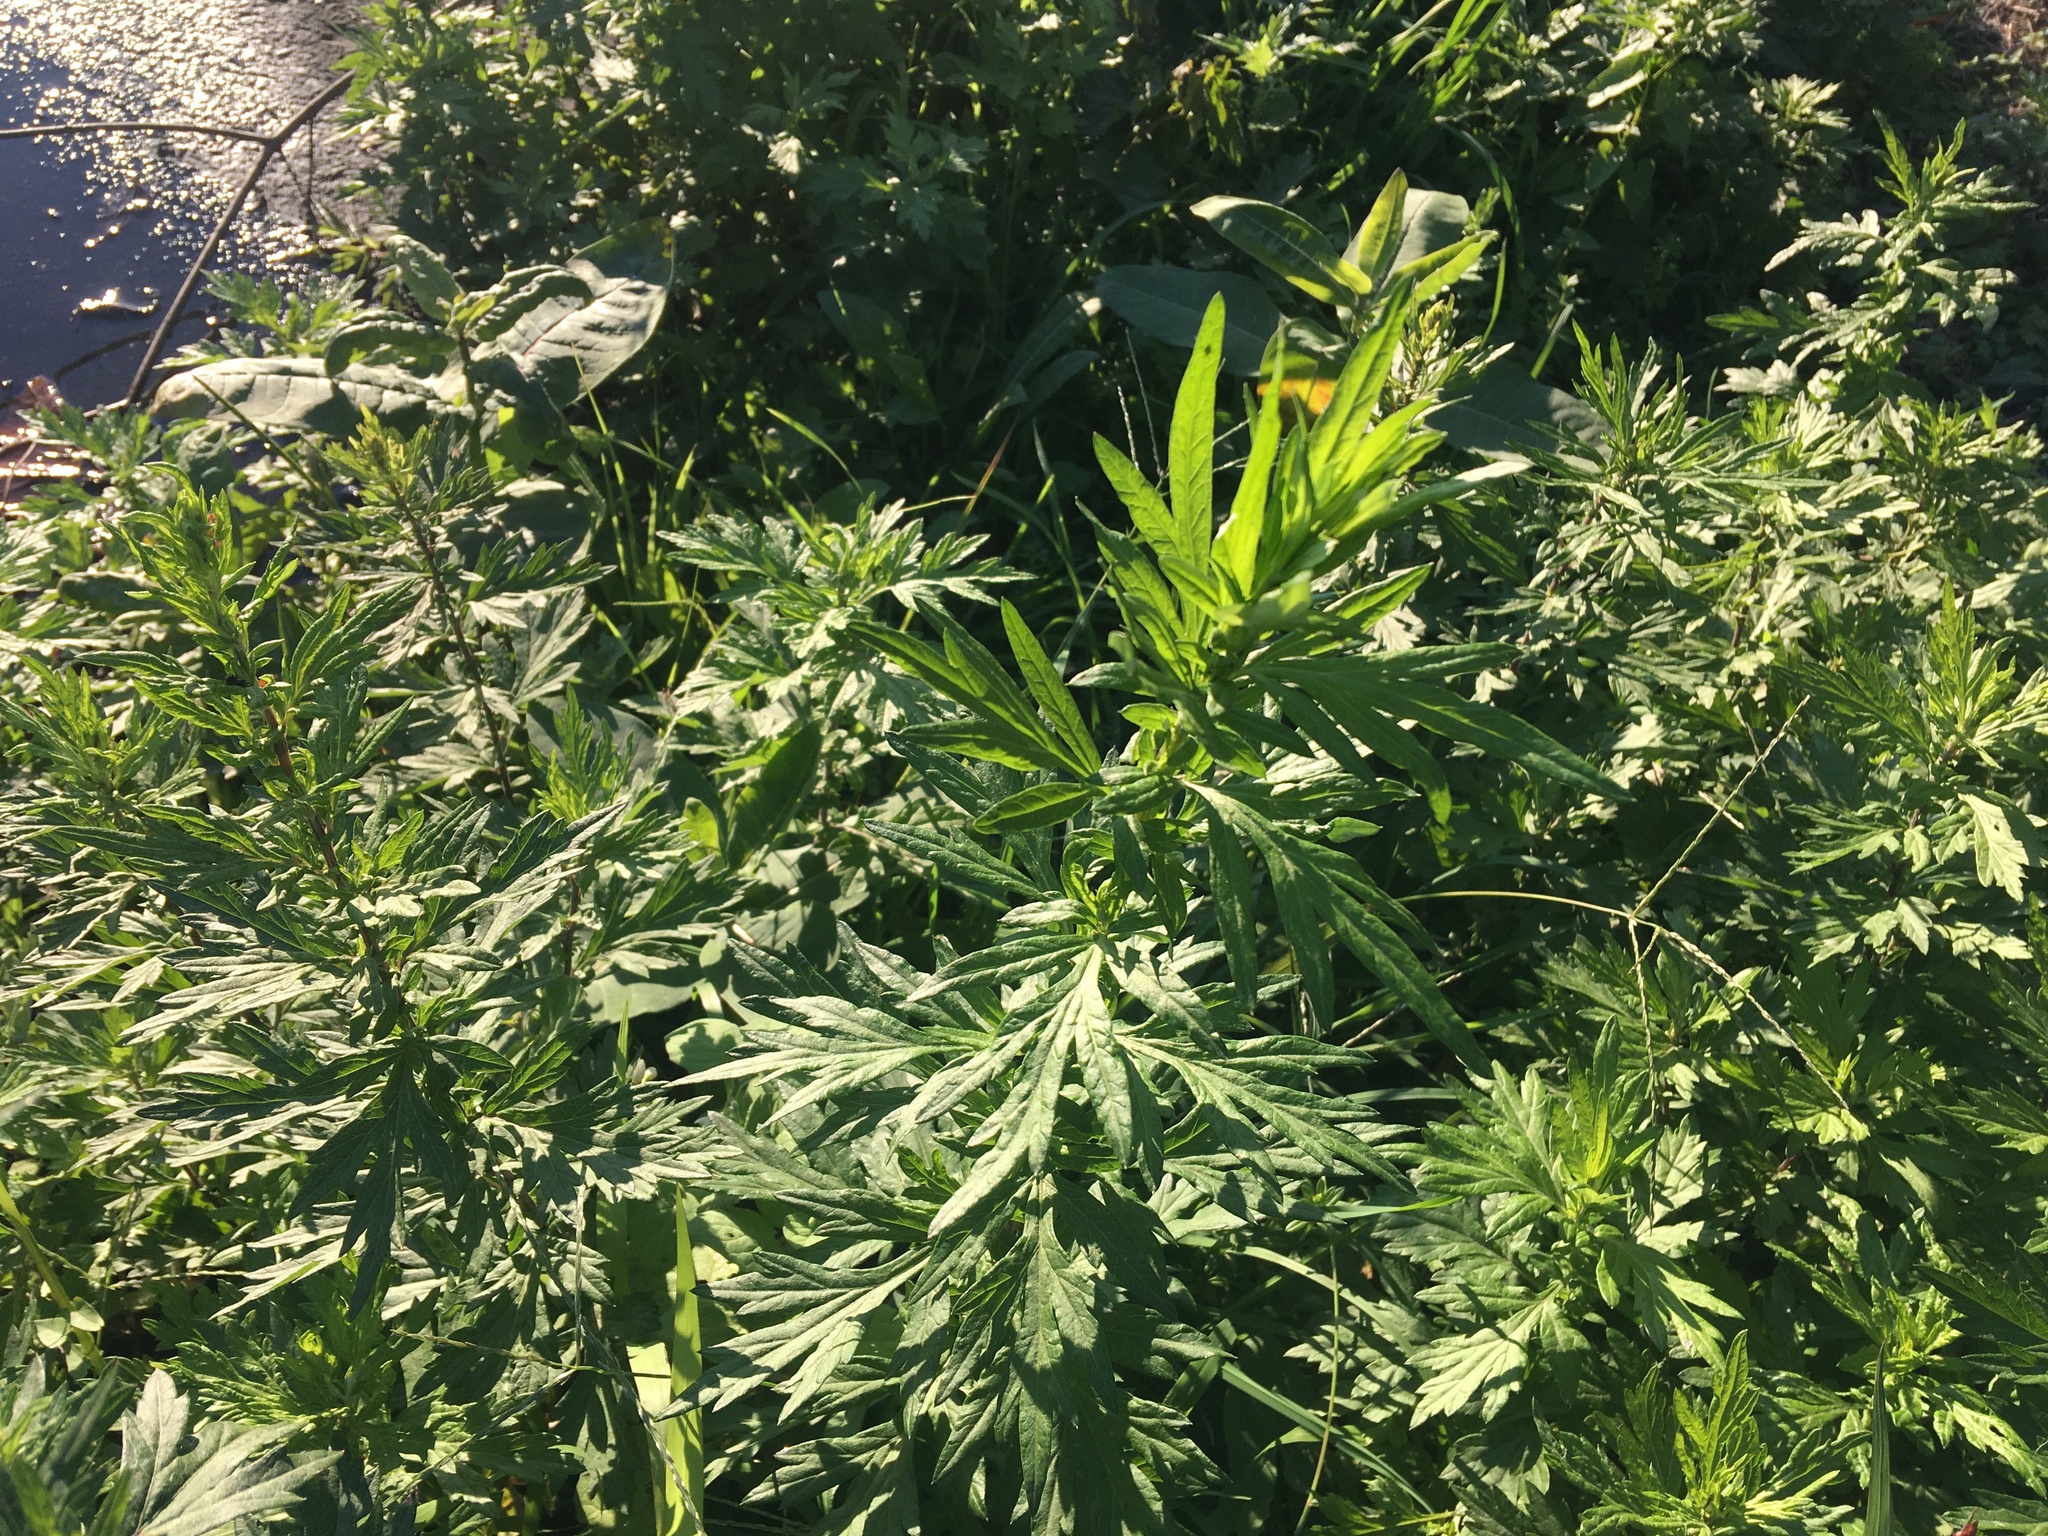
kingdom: Plantae
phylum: Tracheophyta
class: Magnoliopsida
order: Asterales
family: Asteraceae
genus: Artemisia
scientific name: Artemisia vulgaris
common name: Mugwort
